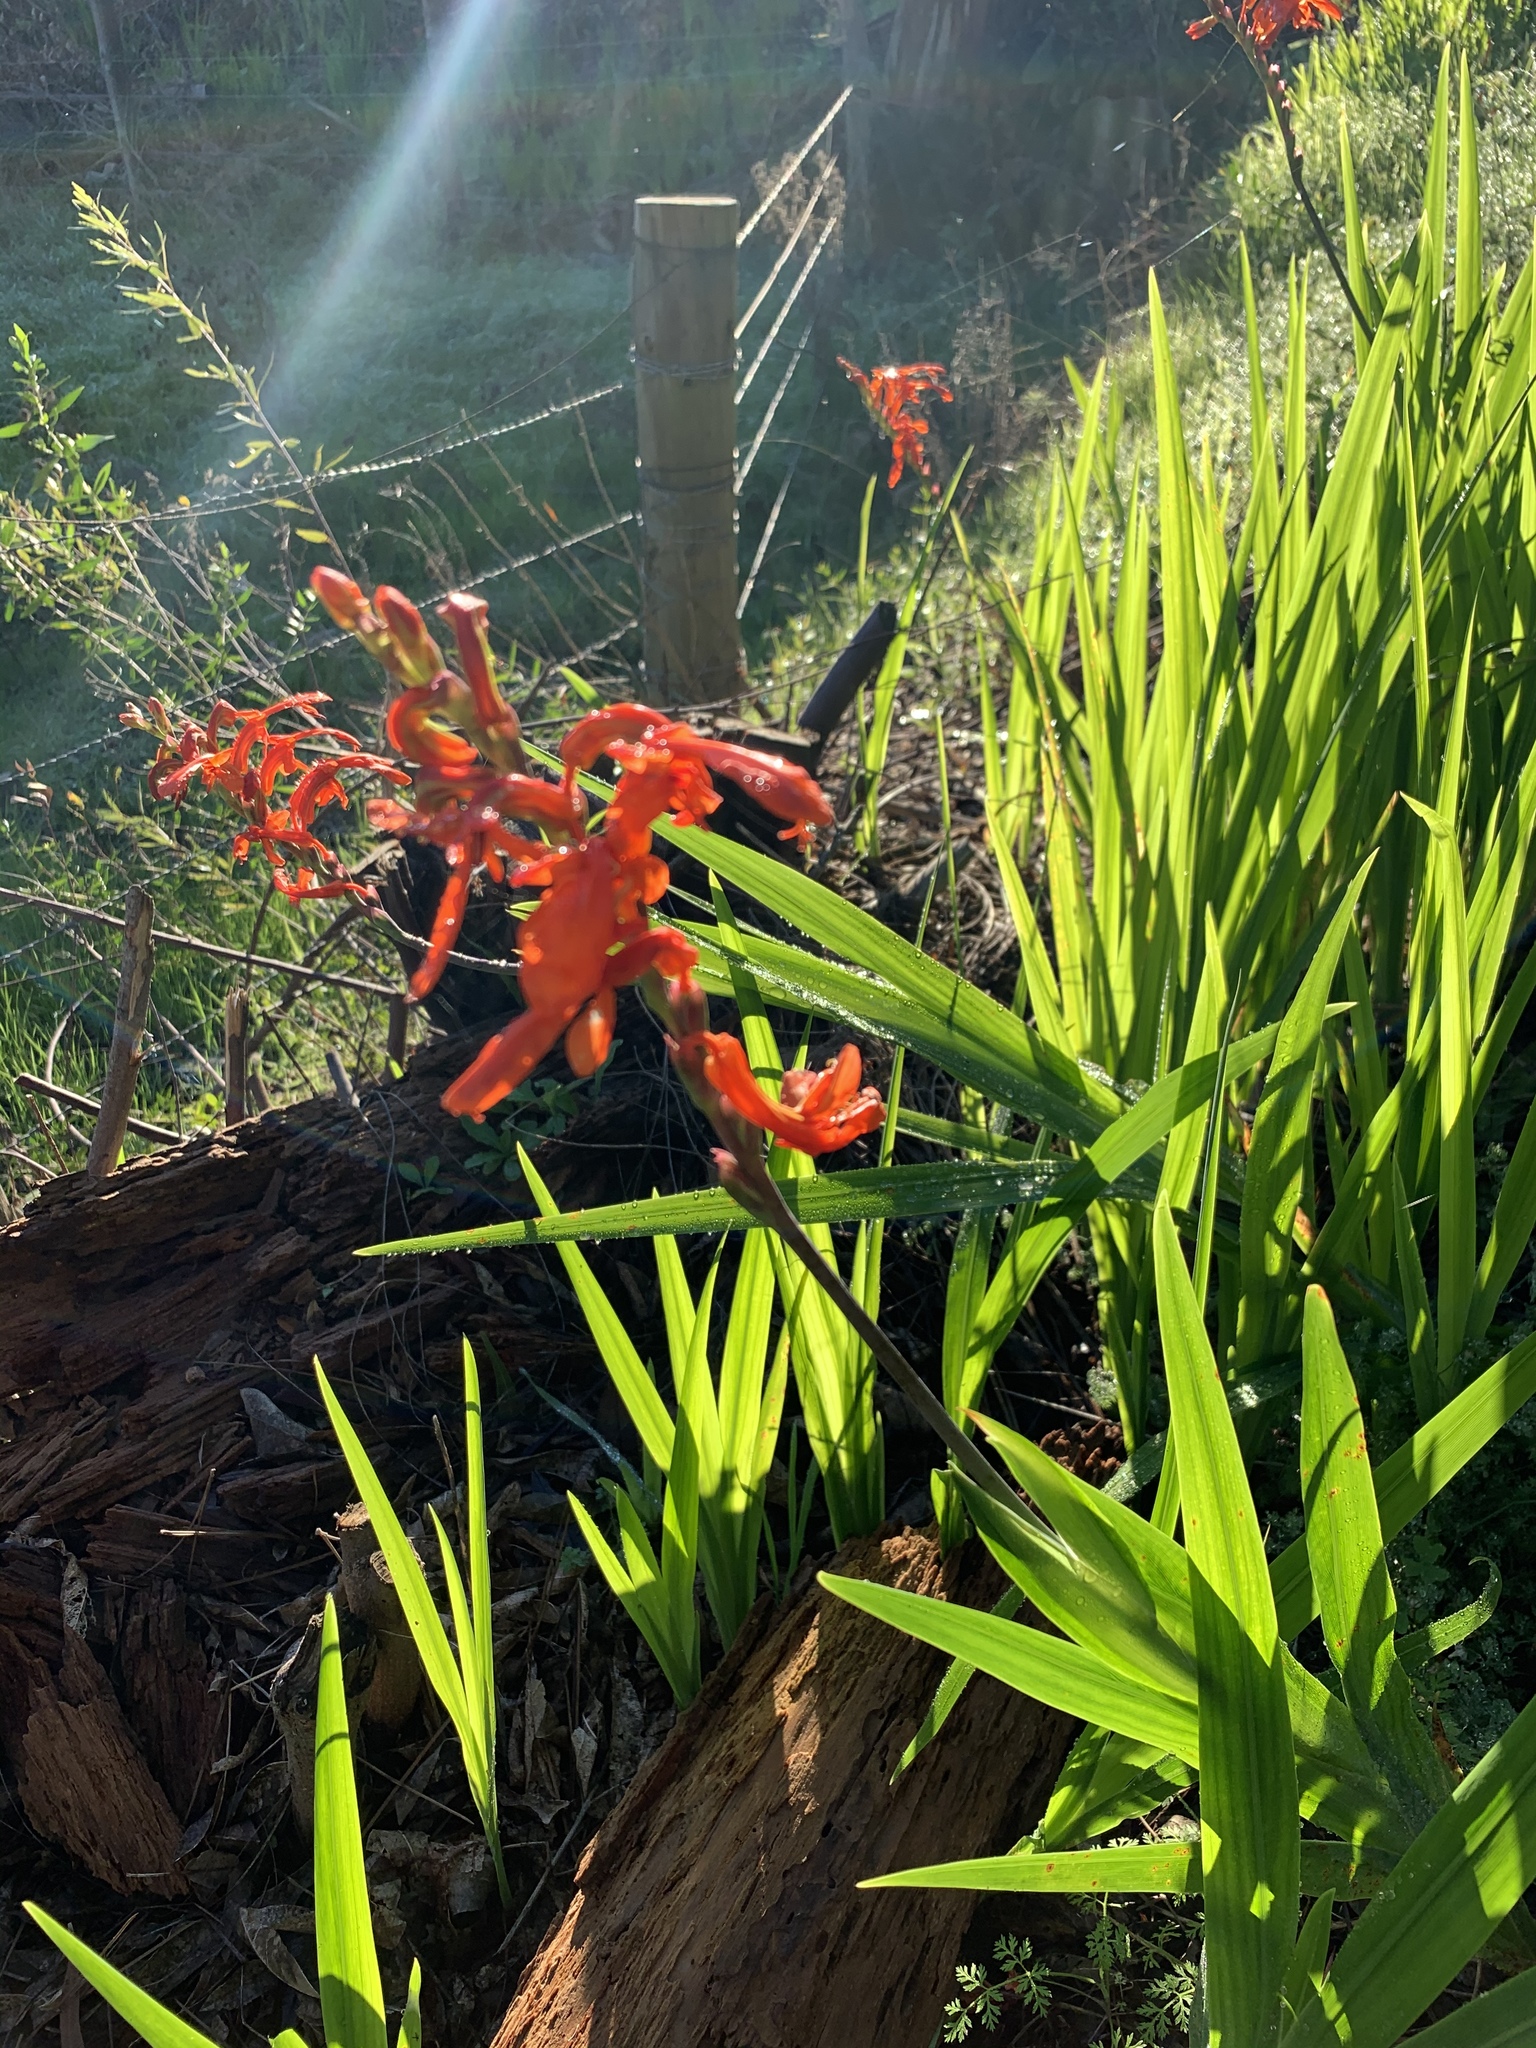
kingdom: Plantae
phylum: Tracheophyta
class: Liliopsida
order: Asparagales
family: Iridaceae
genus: Chasmanthe
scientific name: Chasmanthe aethiopica
